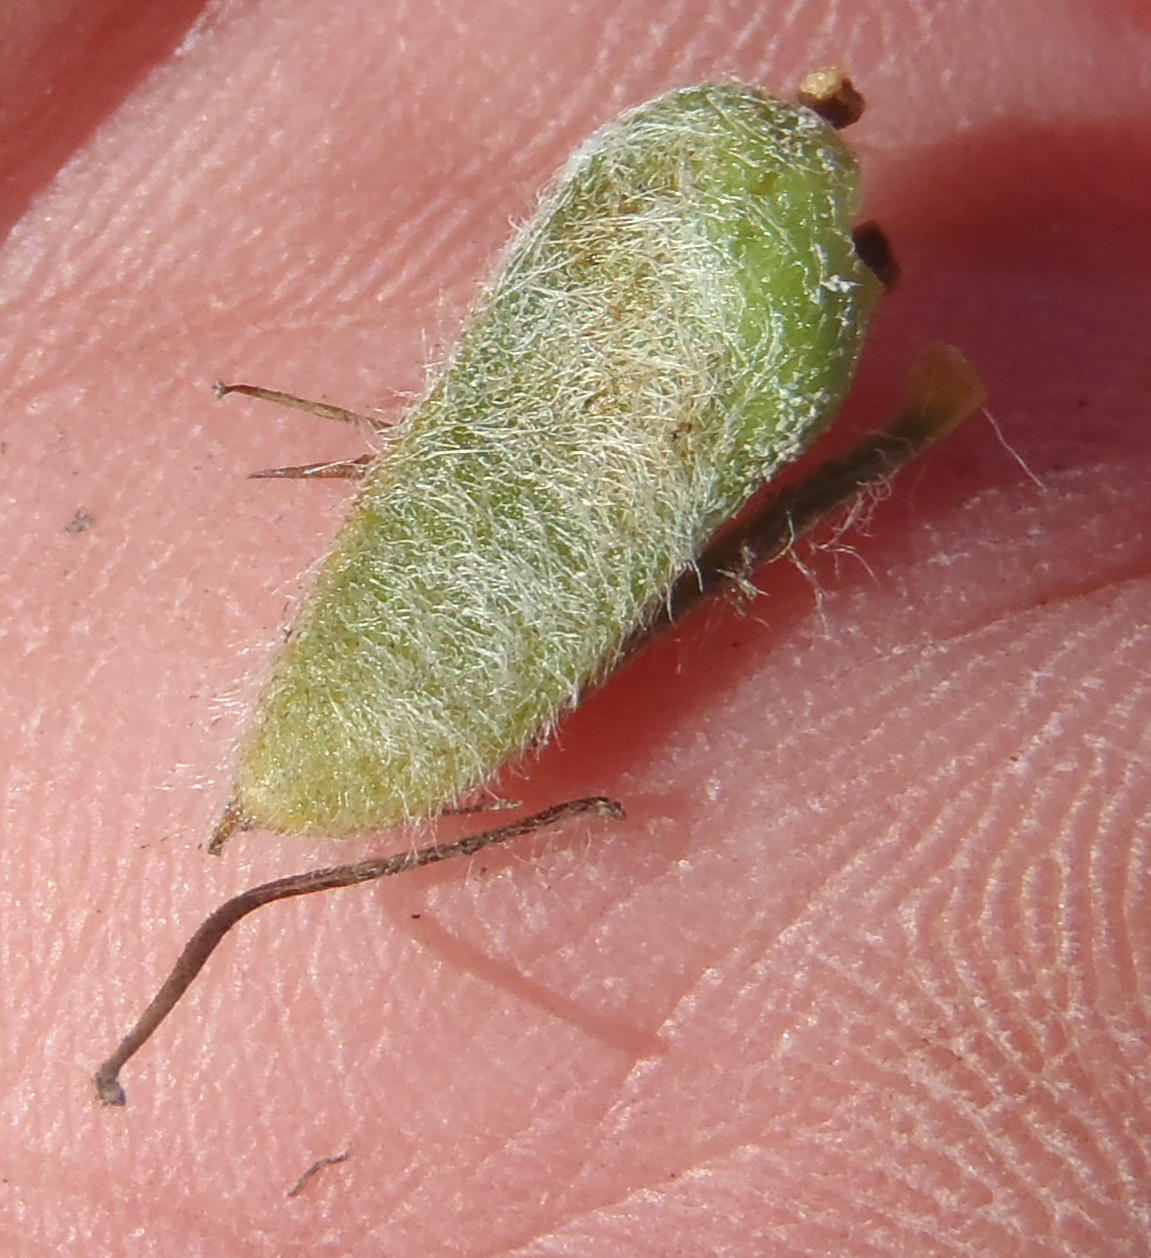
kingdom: Plantae
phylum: Tracheophyta
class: Magnoliopsida
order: Fabales
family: Fabaceae
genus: Aspalathus
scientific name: Aspalathus shawii
